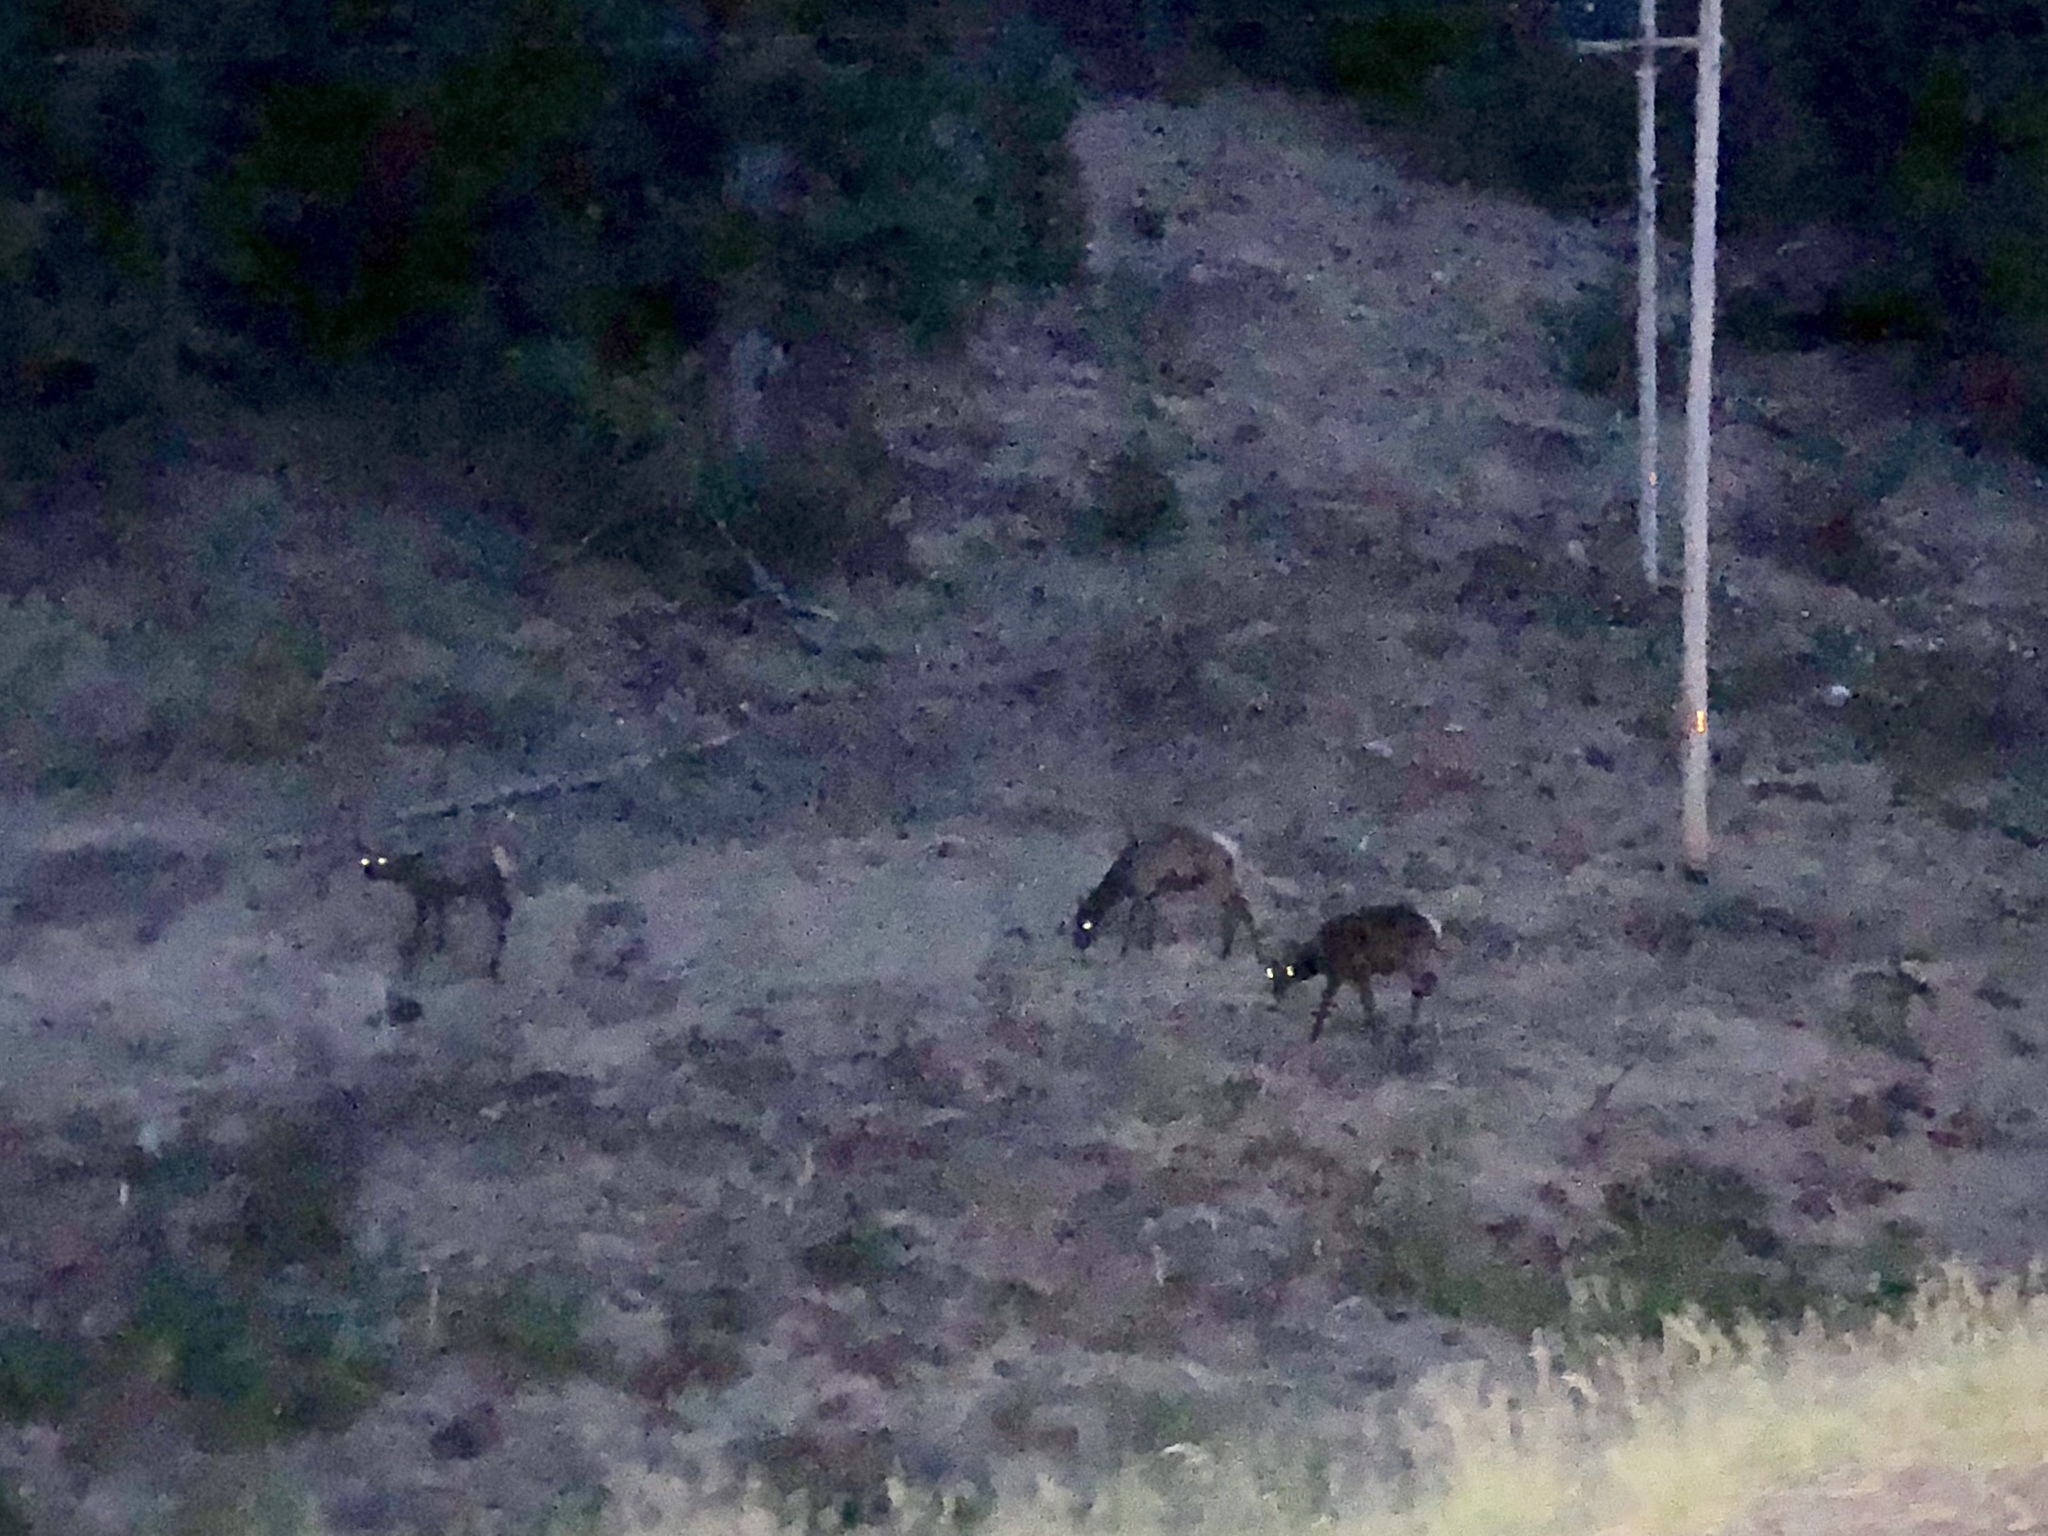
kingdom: Animalia
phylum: Chordata
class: Mammalia
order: Artiodactyla
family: Cervidae
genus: Cervus
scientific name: Cervus elaphus
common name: Red deer
